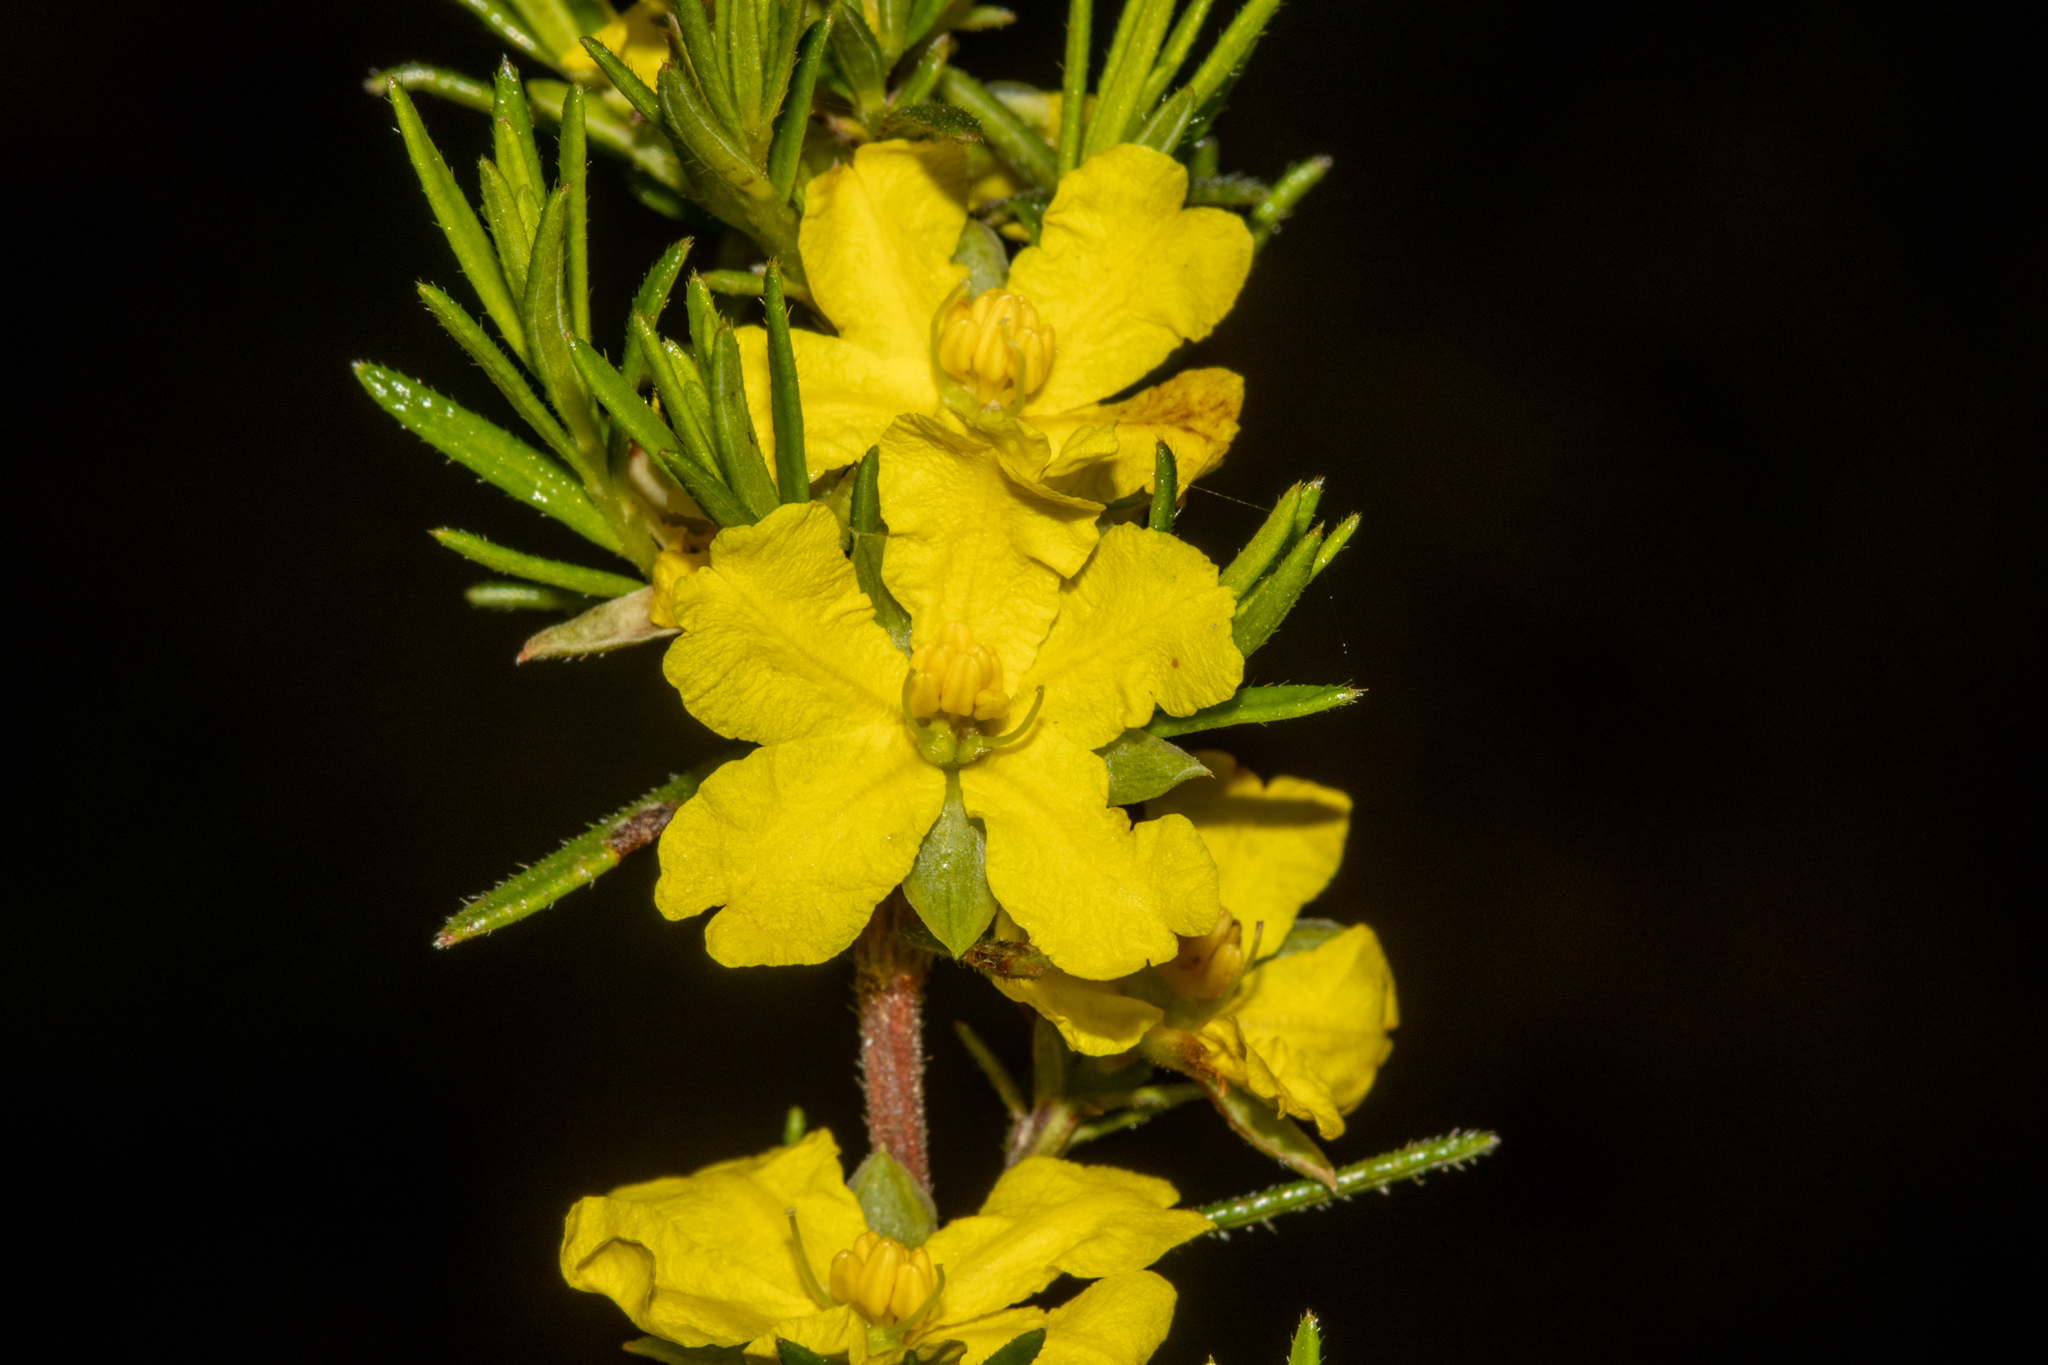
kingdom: Plantae
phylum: Tracheophyta
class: Magnoliopsida
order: Dilleniales
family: Dilleniaceae
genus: Hibbertia
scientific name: Hibbertia riparia
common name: Erect guinea-flower
